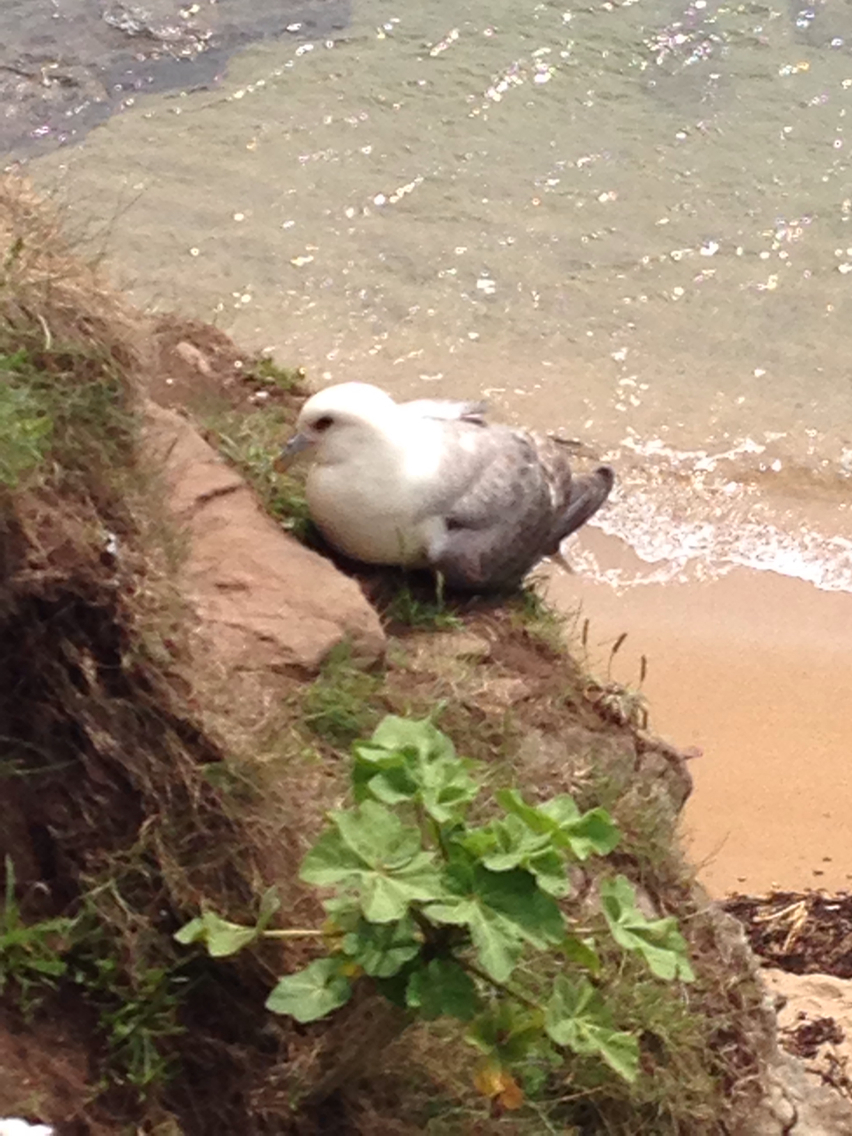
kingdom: Animalia
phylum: Chordata
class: Aves
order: Procellariiformes
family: Procellariidae
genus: Fulmarus
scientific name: Fulmarus glacialis
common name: Northern fulmar
